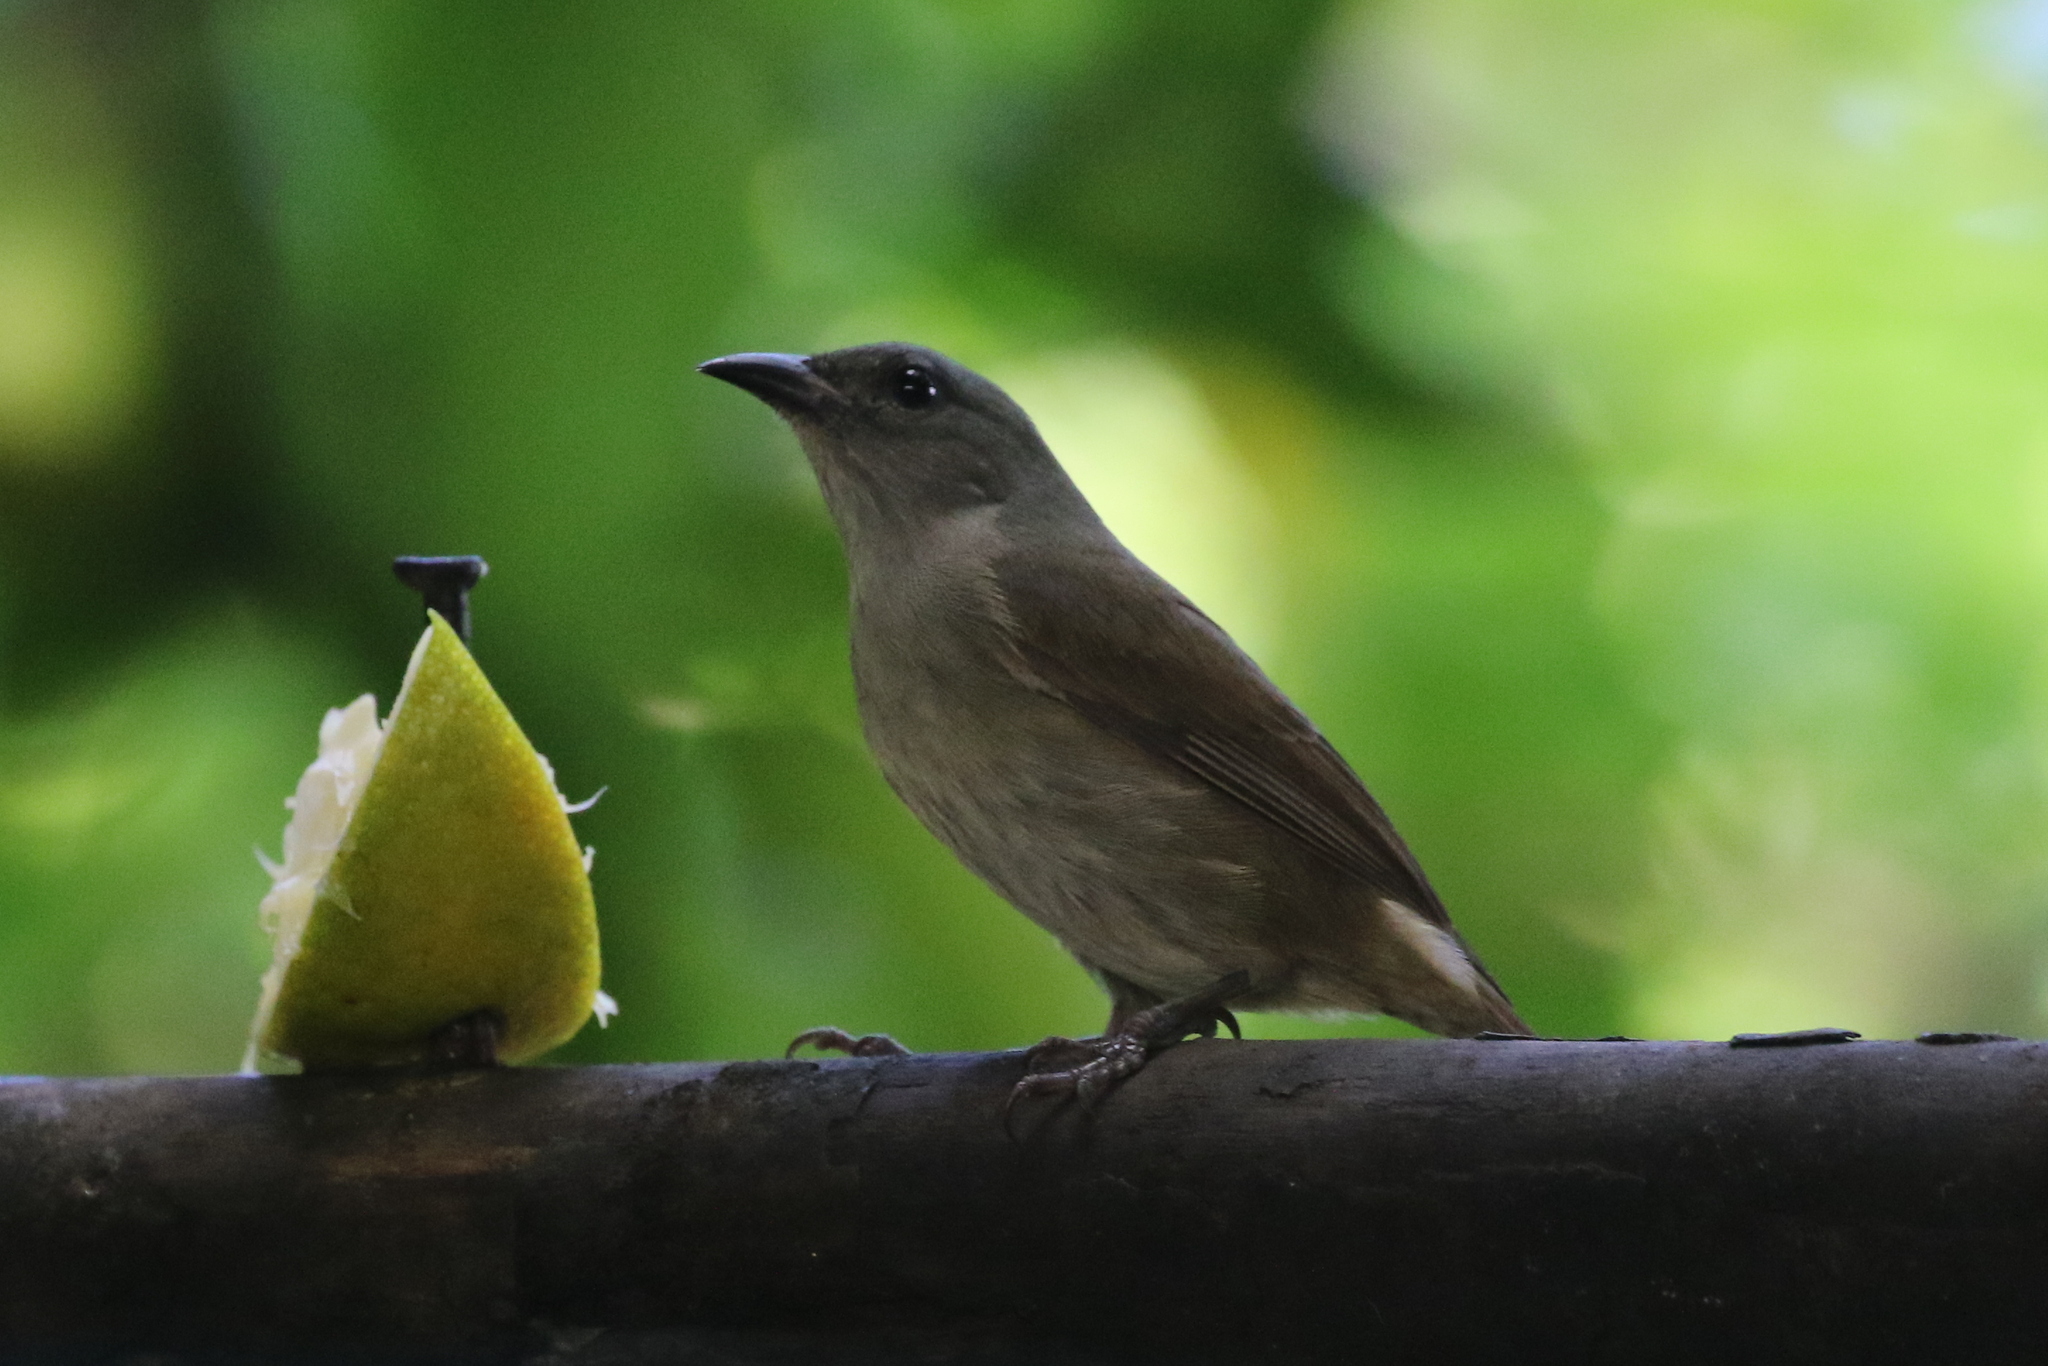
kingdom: Animalia
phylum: Chordata
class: Aves
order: Passeriformes
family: Thraupidae
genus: Euneornis
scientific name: Euneornis campestris
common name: Orangequit
